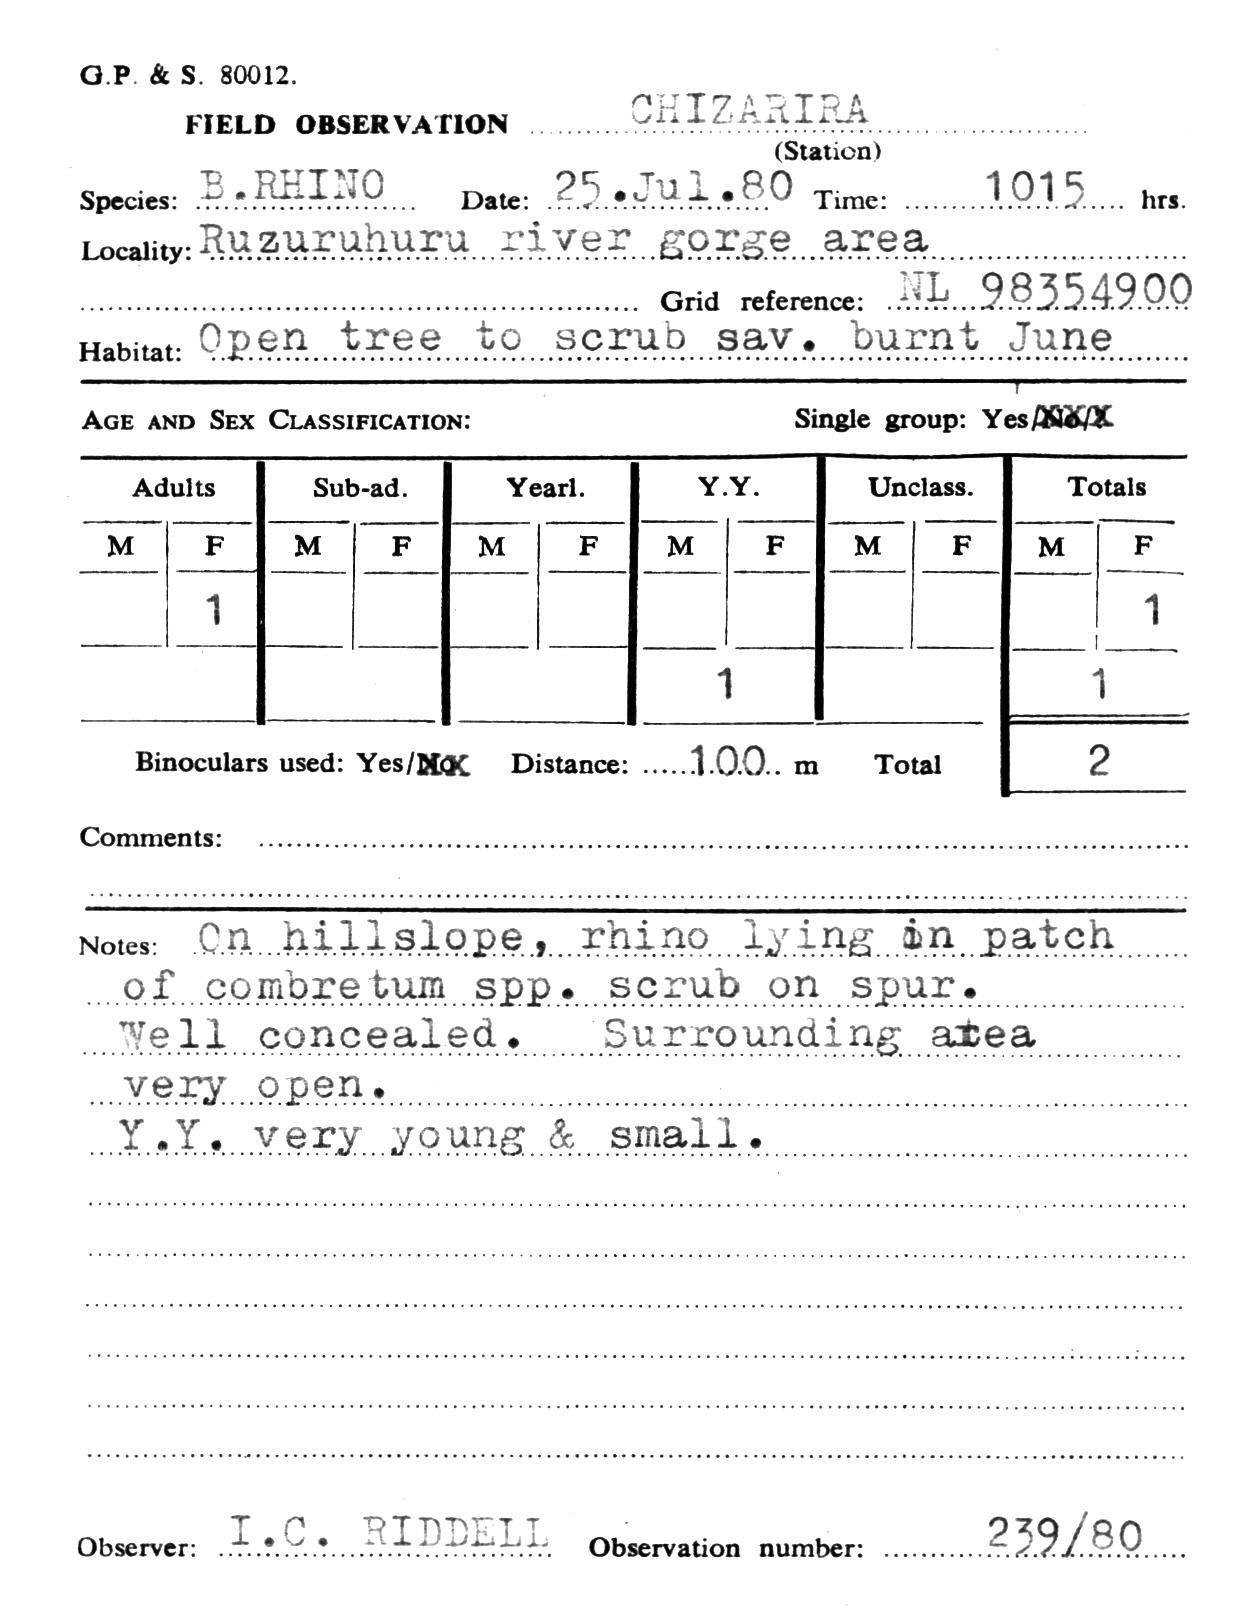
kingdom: Animalia
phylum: Chordata
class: Mammalia
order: Perissodactyla
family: Rhinocerotidae
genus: Diceros
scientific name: Diceros bicornis
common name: Black rhinoceros
